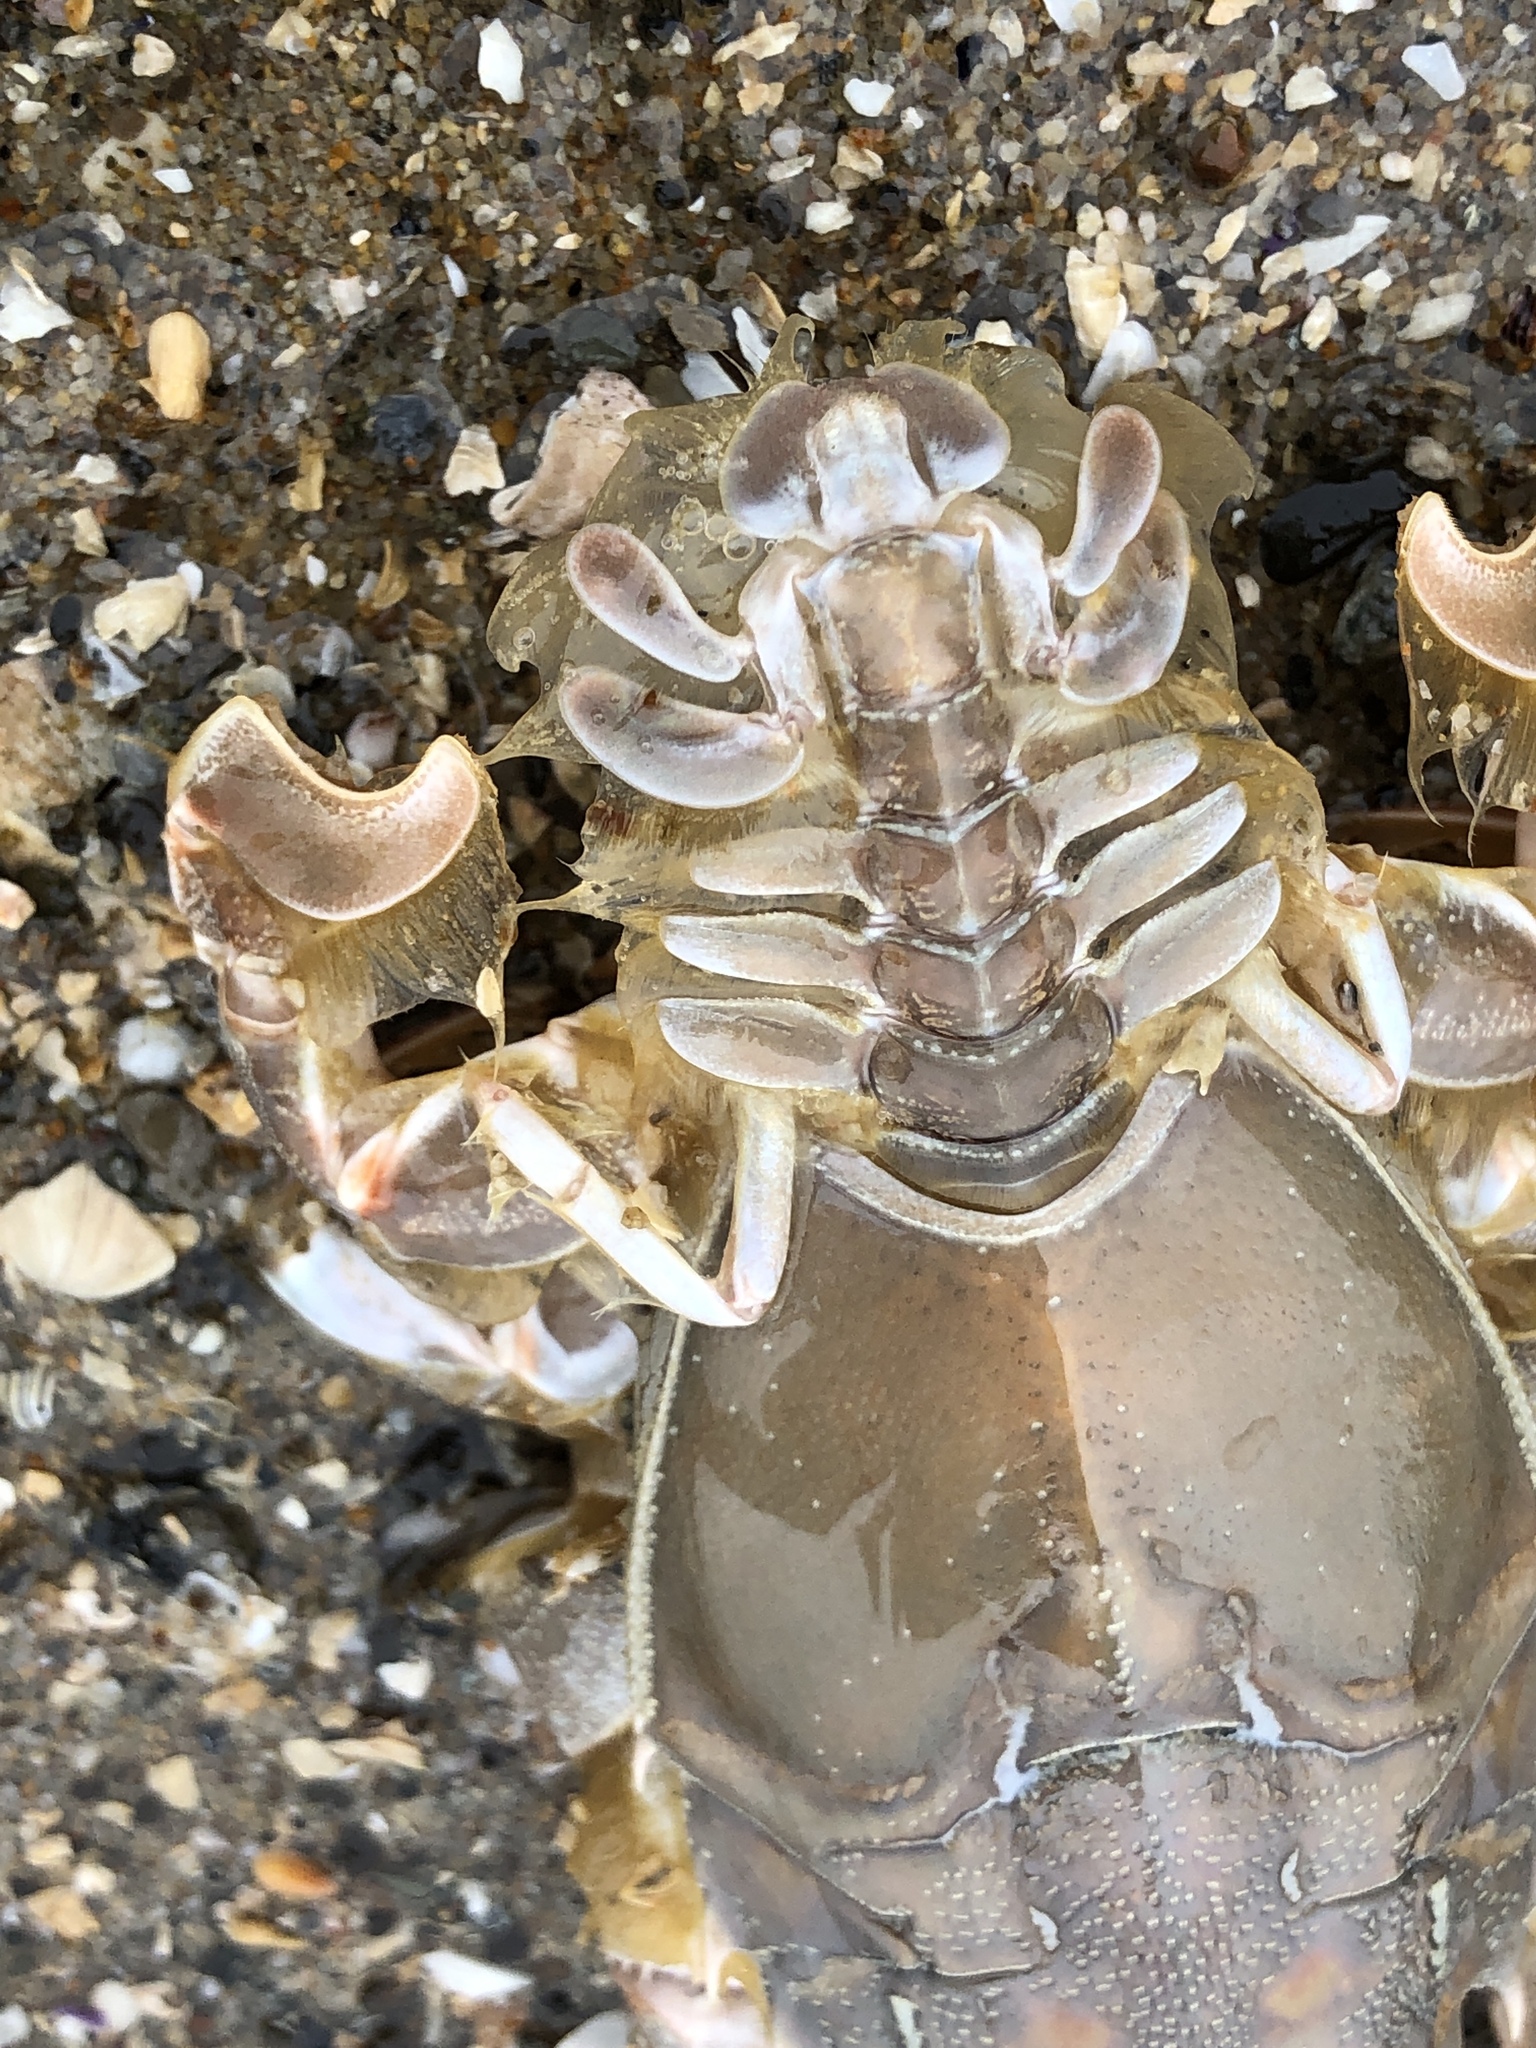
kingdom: Animalia
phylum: Arthropoda
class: Malacostraca
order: Decapoda
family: Blepharipodidae
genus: Blepharipoda
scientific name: Blepharipoda occidentalis
